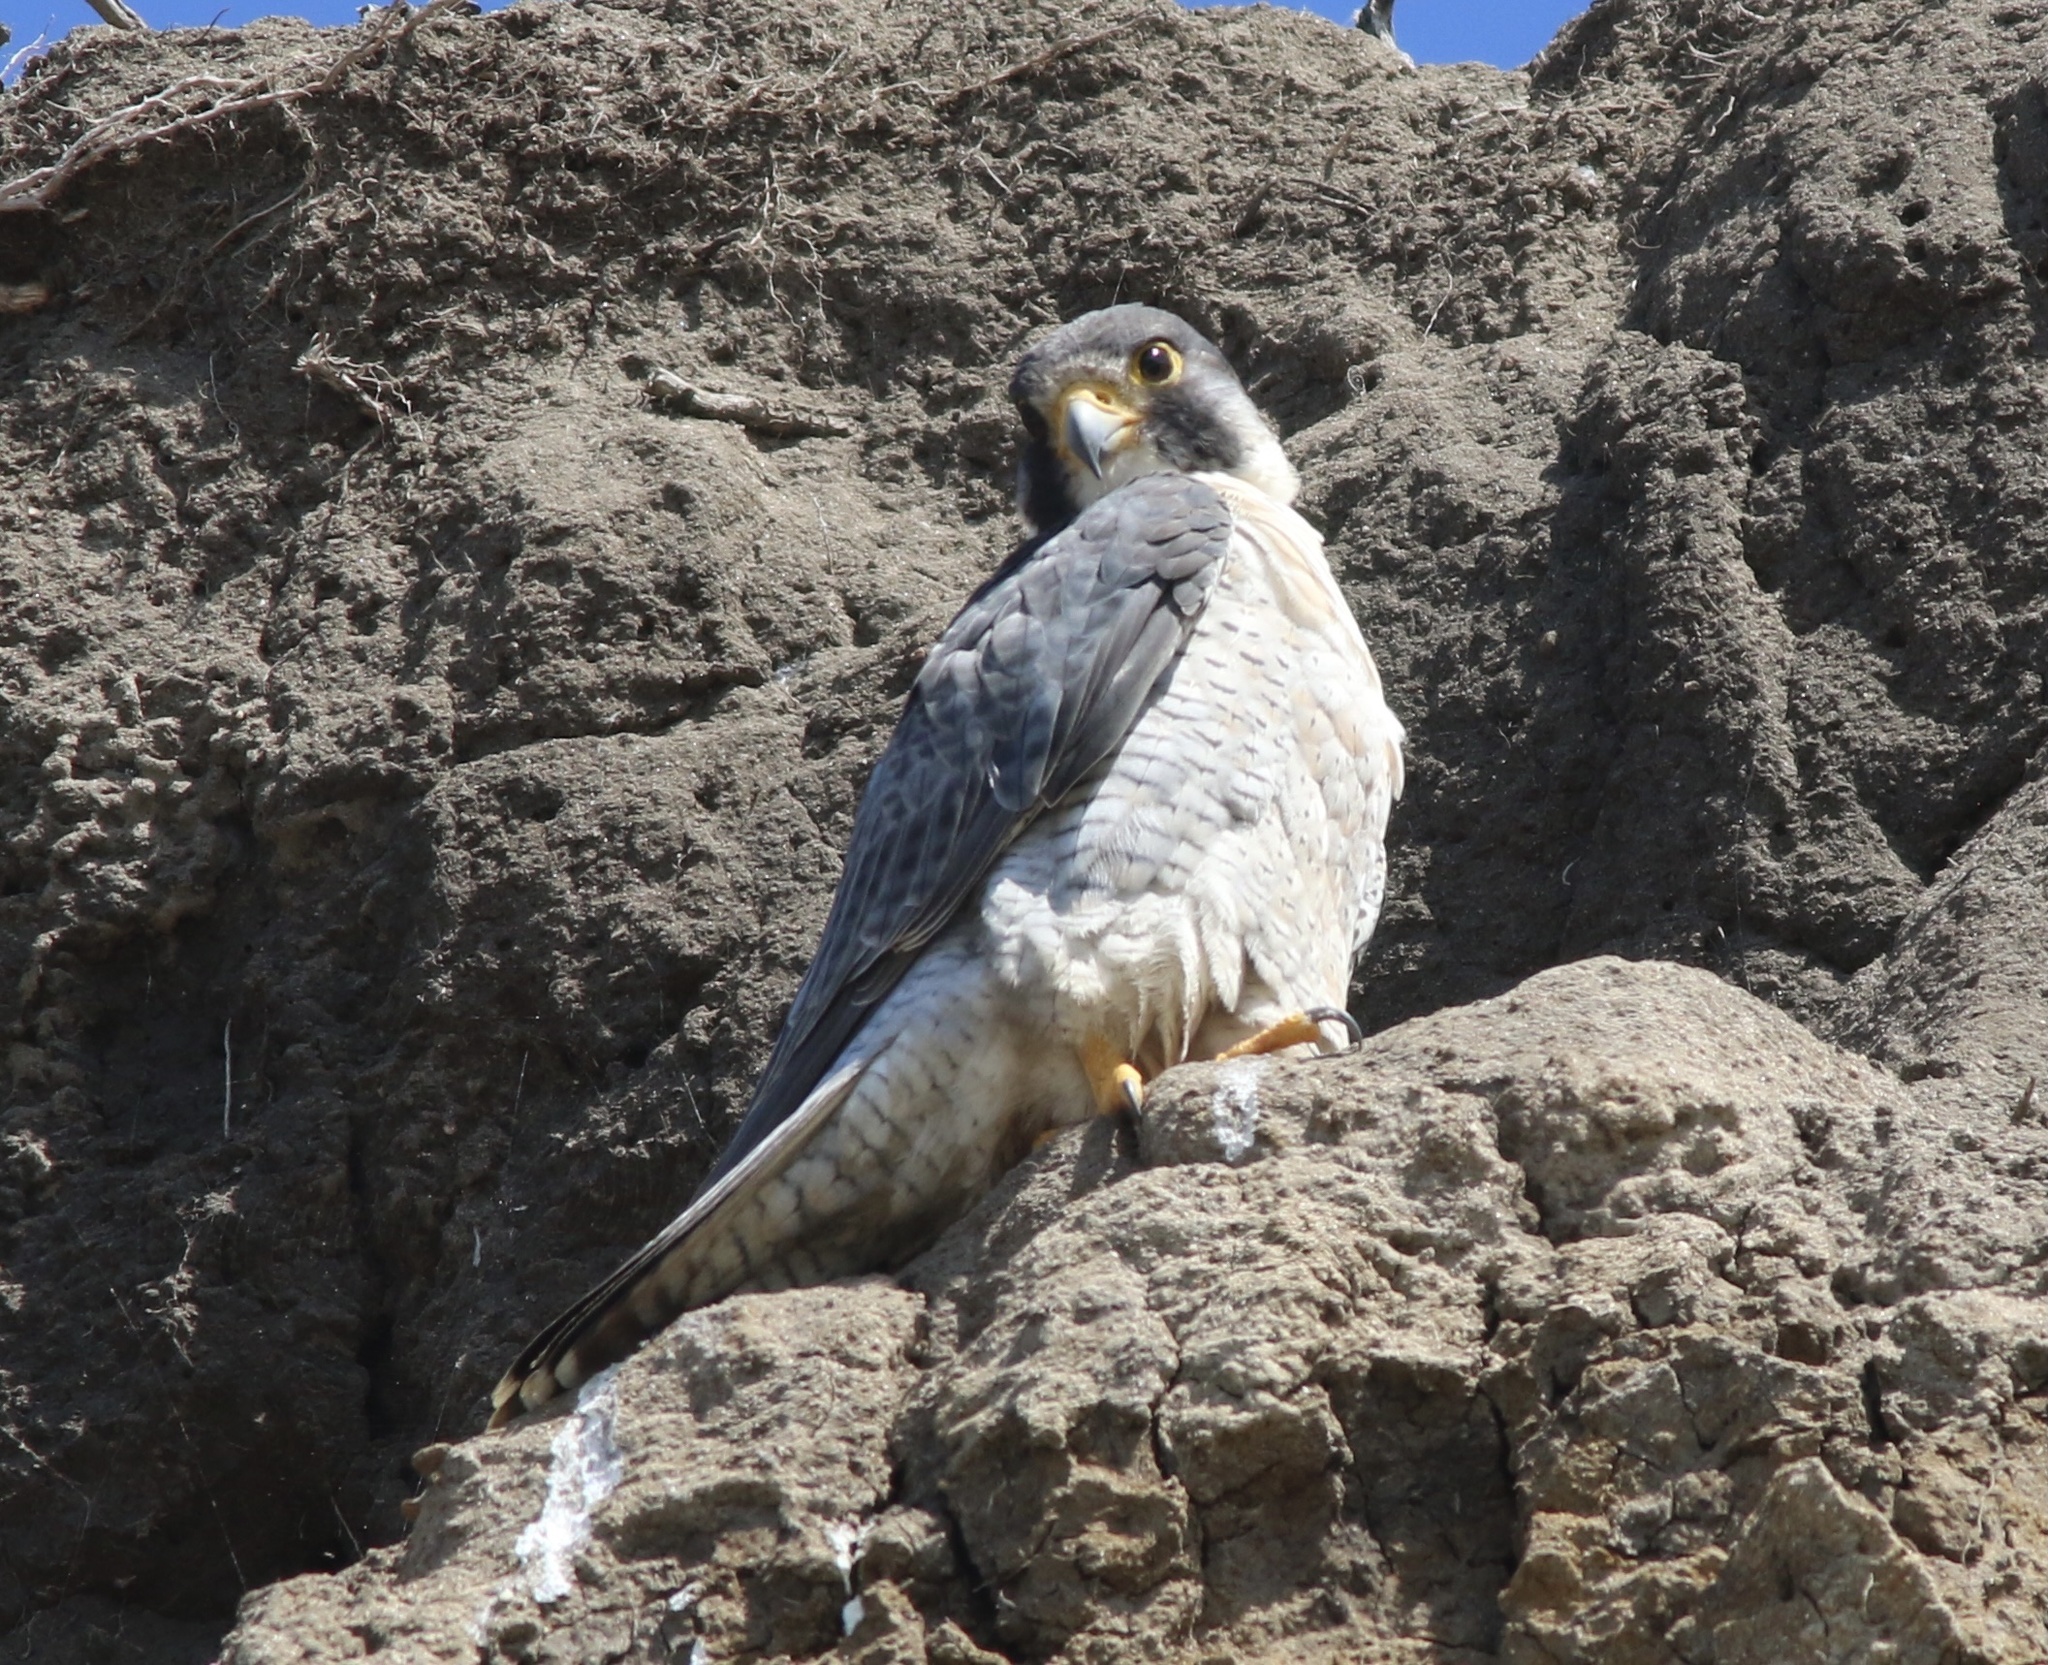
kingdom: Animalia
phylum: Chordata
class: Aves
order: Falconiformes
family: Falconidae
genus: Falco
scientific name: Falco peregrinus
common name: Peregrine falcon
